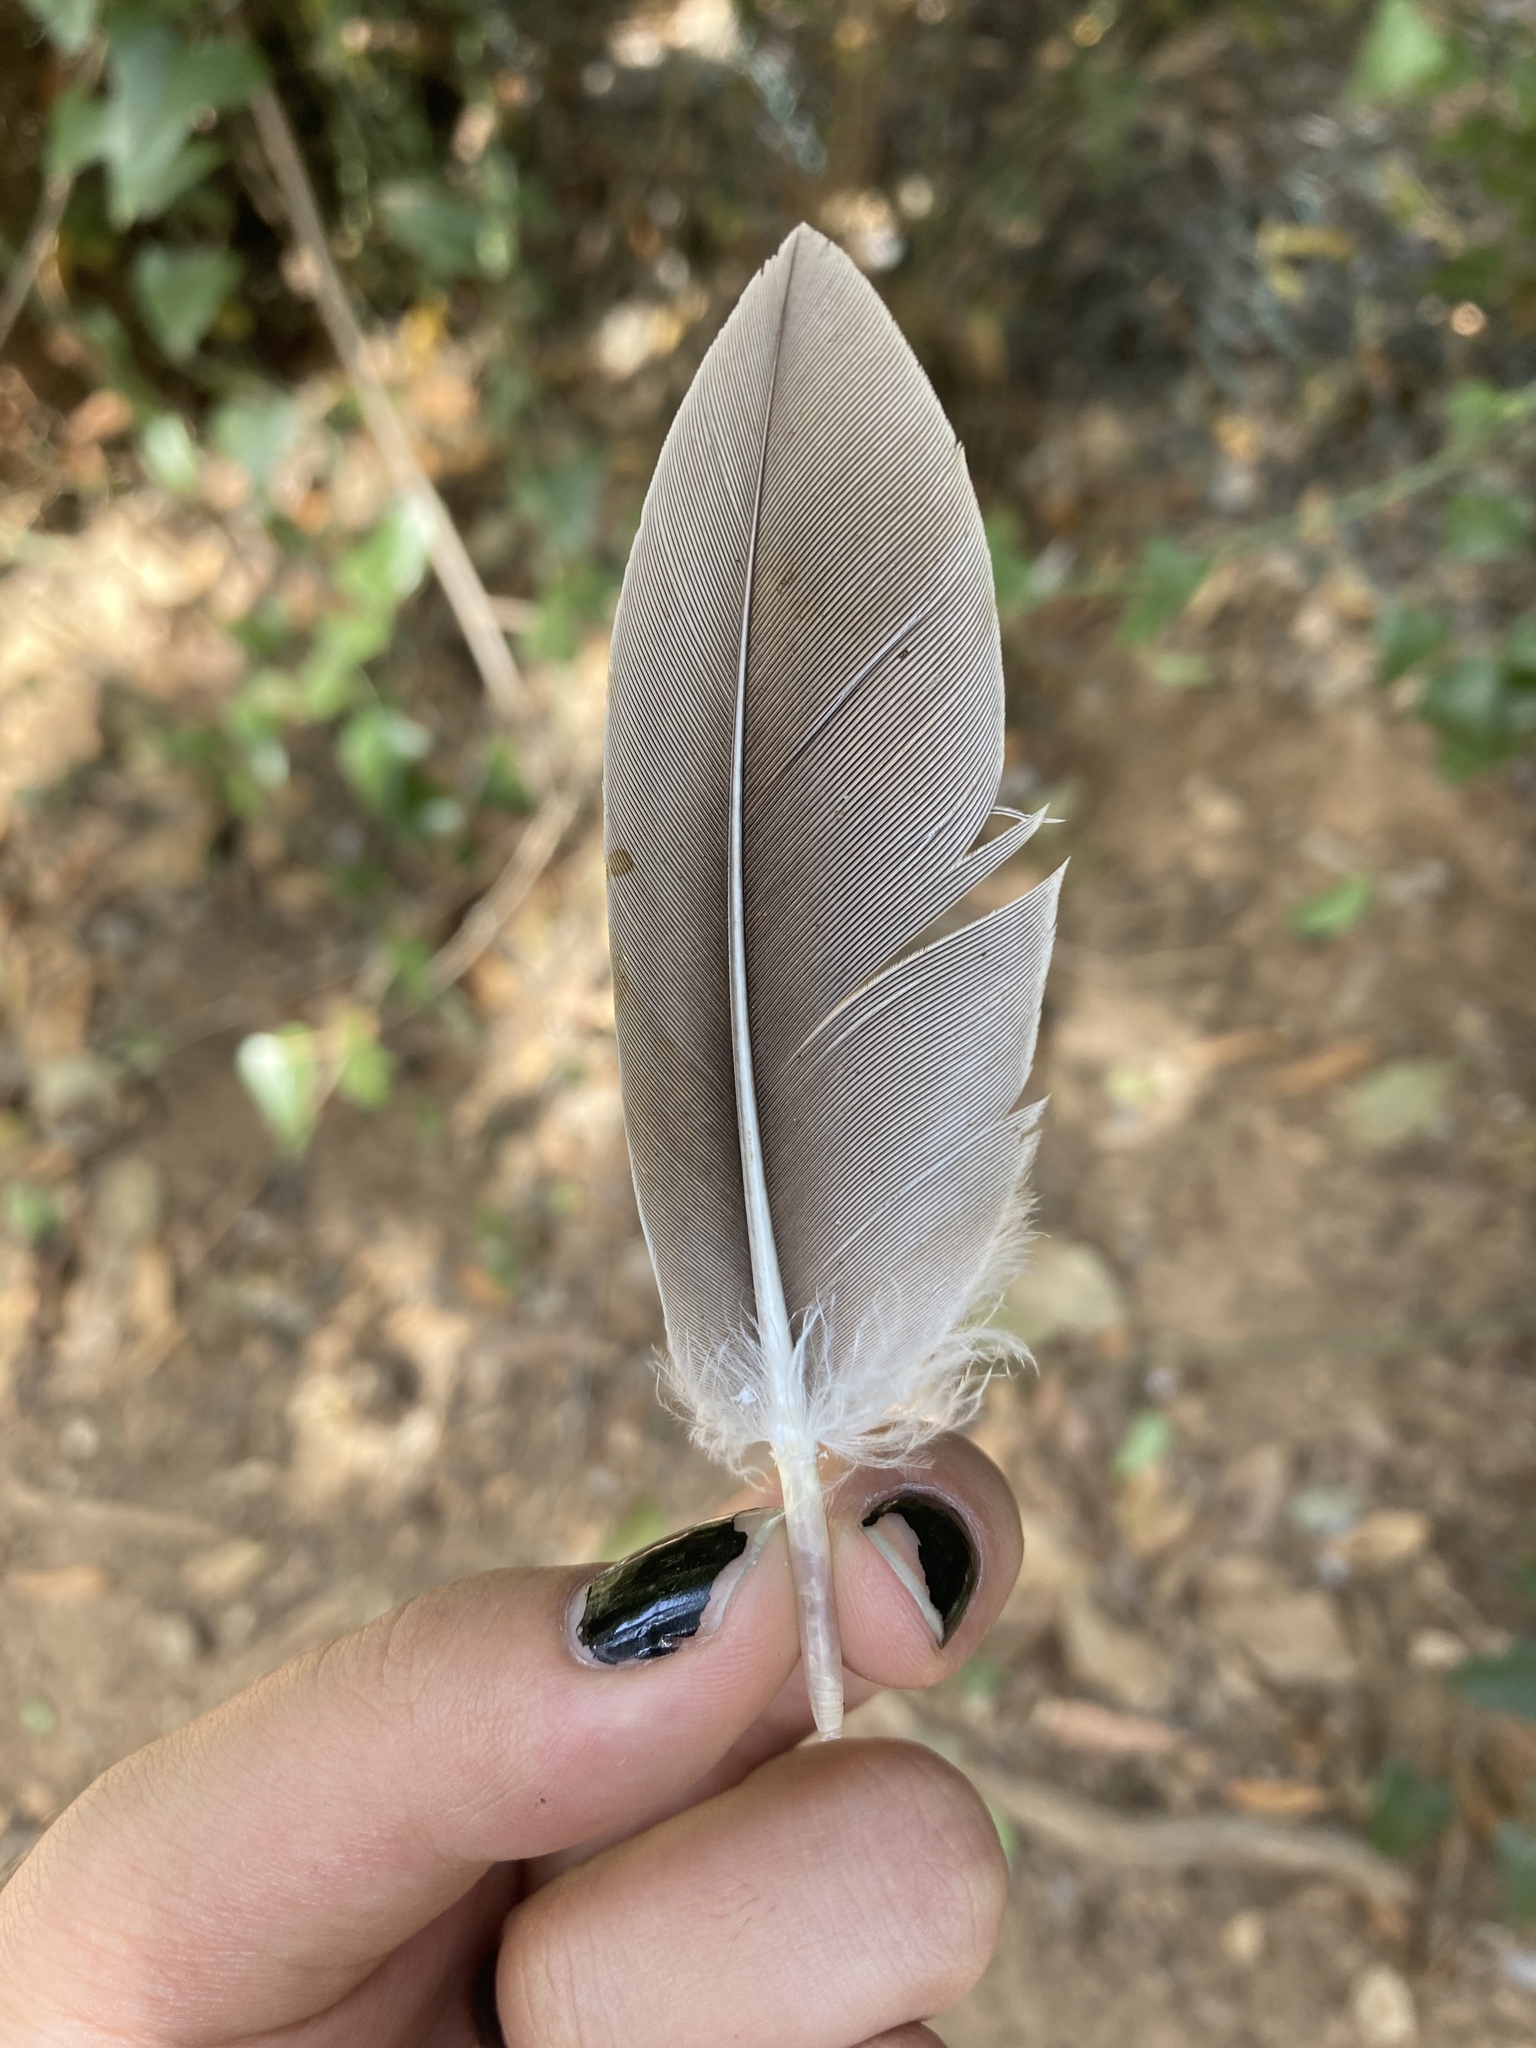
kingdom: Animalia
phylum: Chordata
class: Aves
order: Anseriformes
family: Anatidae
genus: Anser
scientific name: Anser anser
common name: Greylag goose
